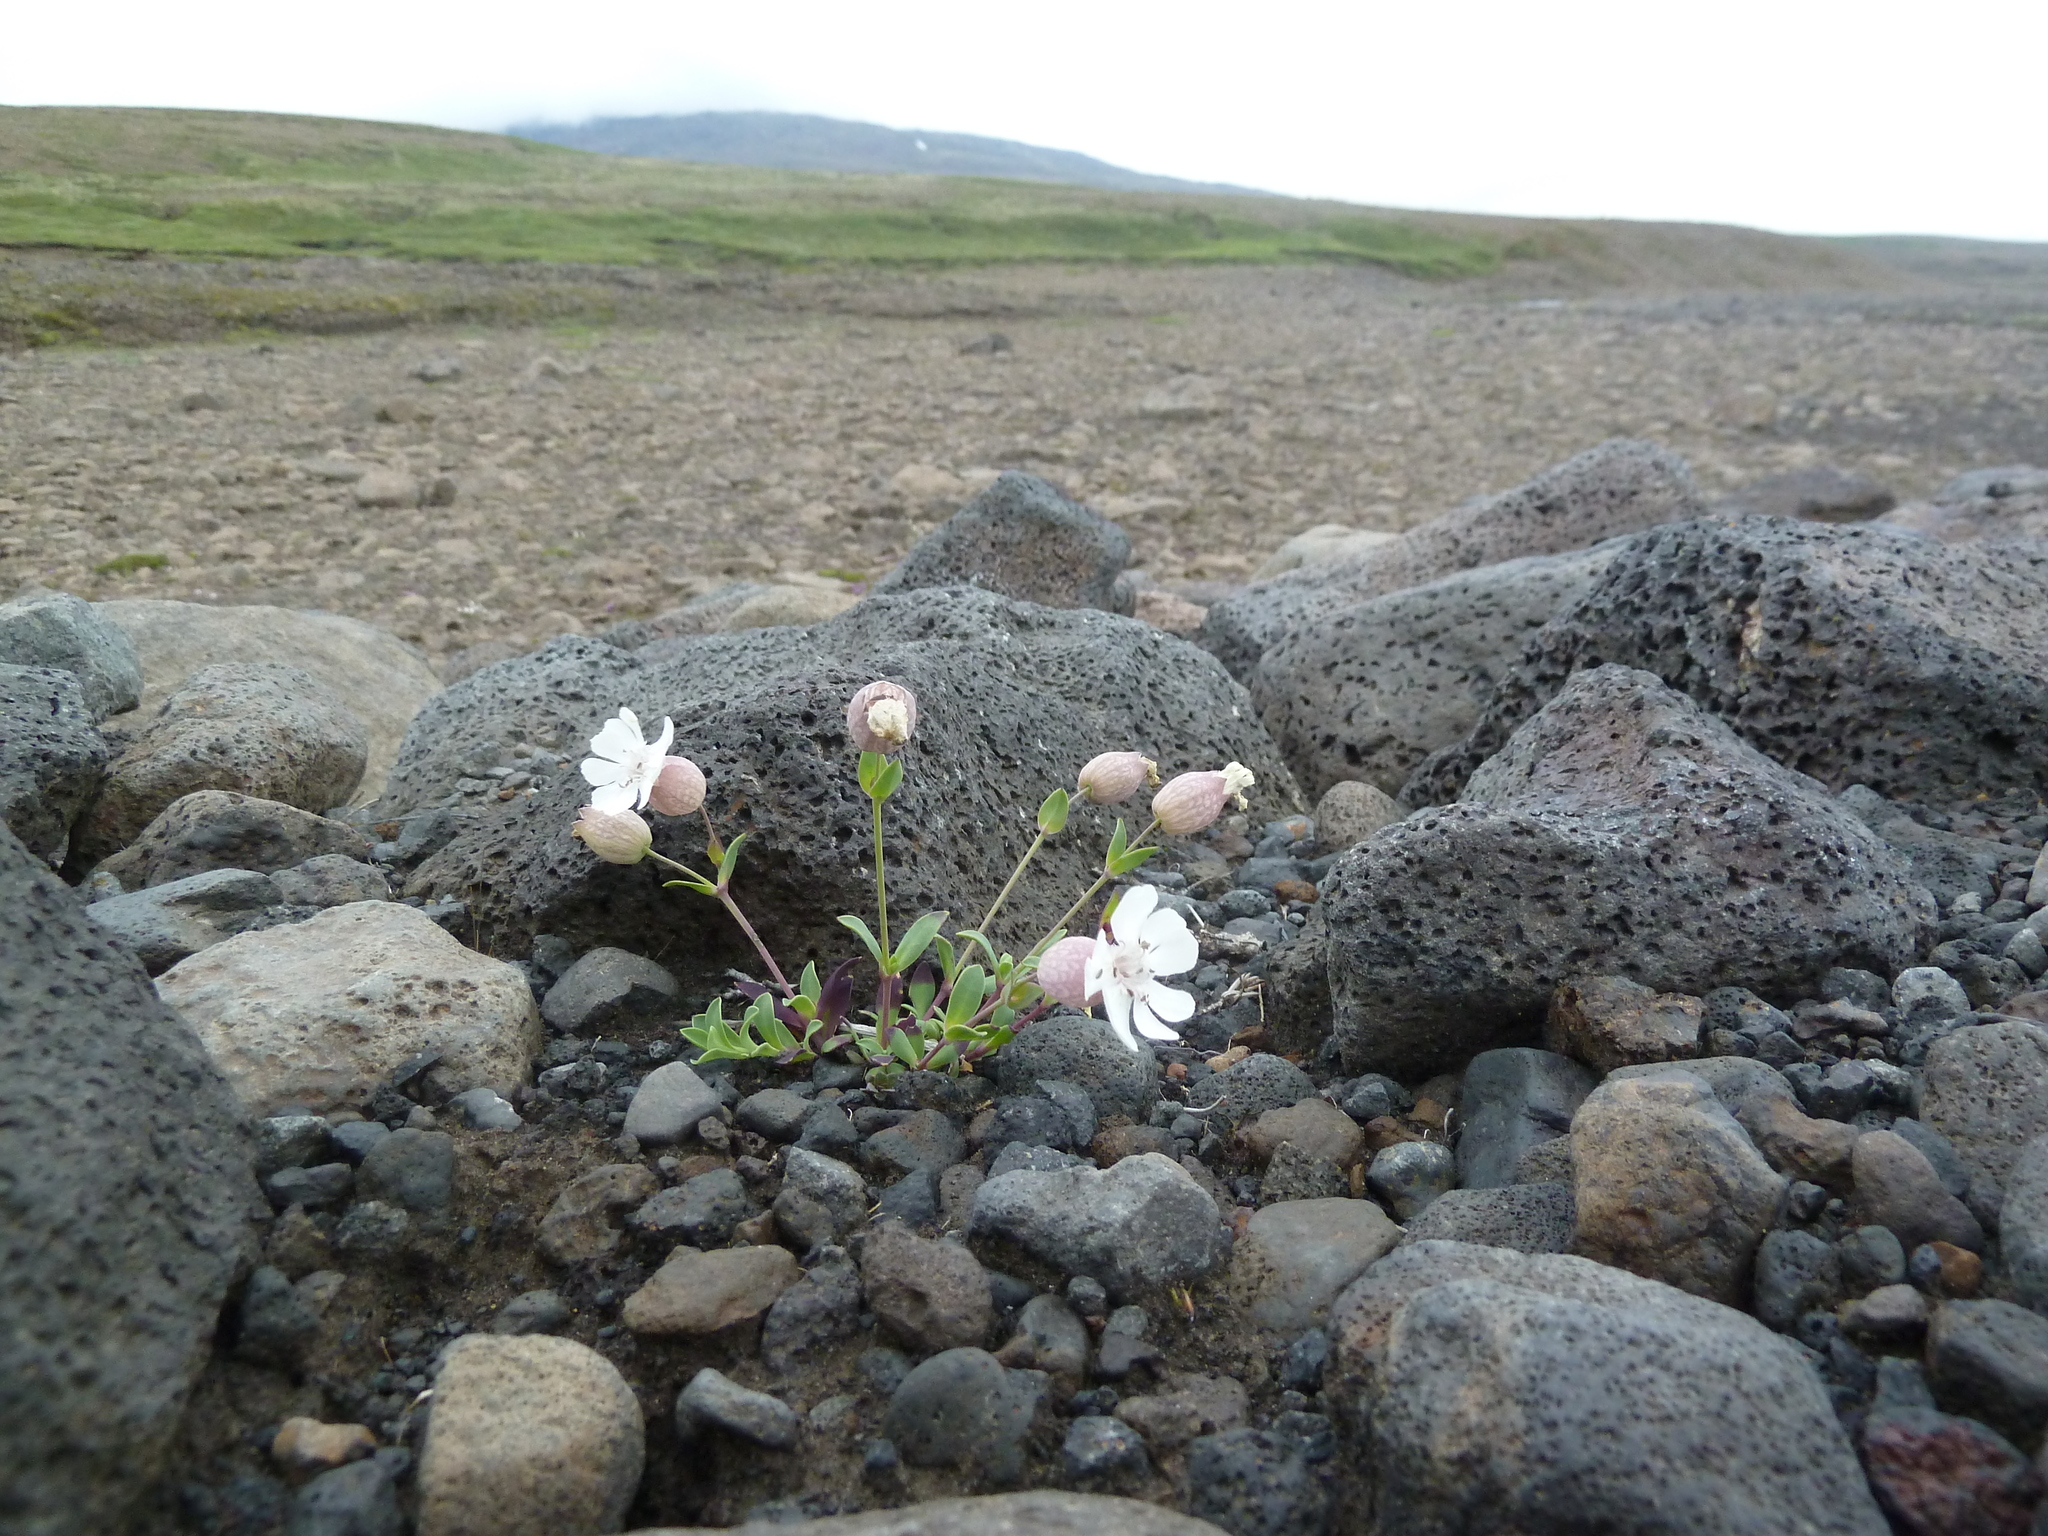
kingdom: Plantae
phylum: Tracheophyta
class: Magnoliopsida
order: Caryophyllales
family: Caryophyllaceae
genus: Silene
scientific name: Silene uniflora
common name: Sea campion
